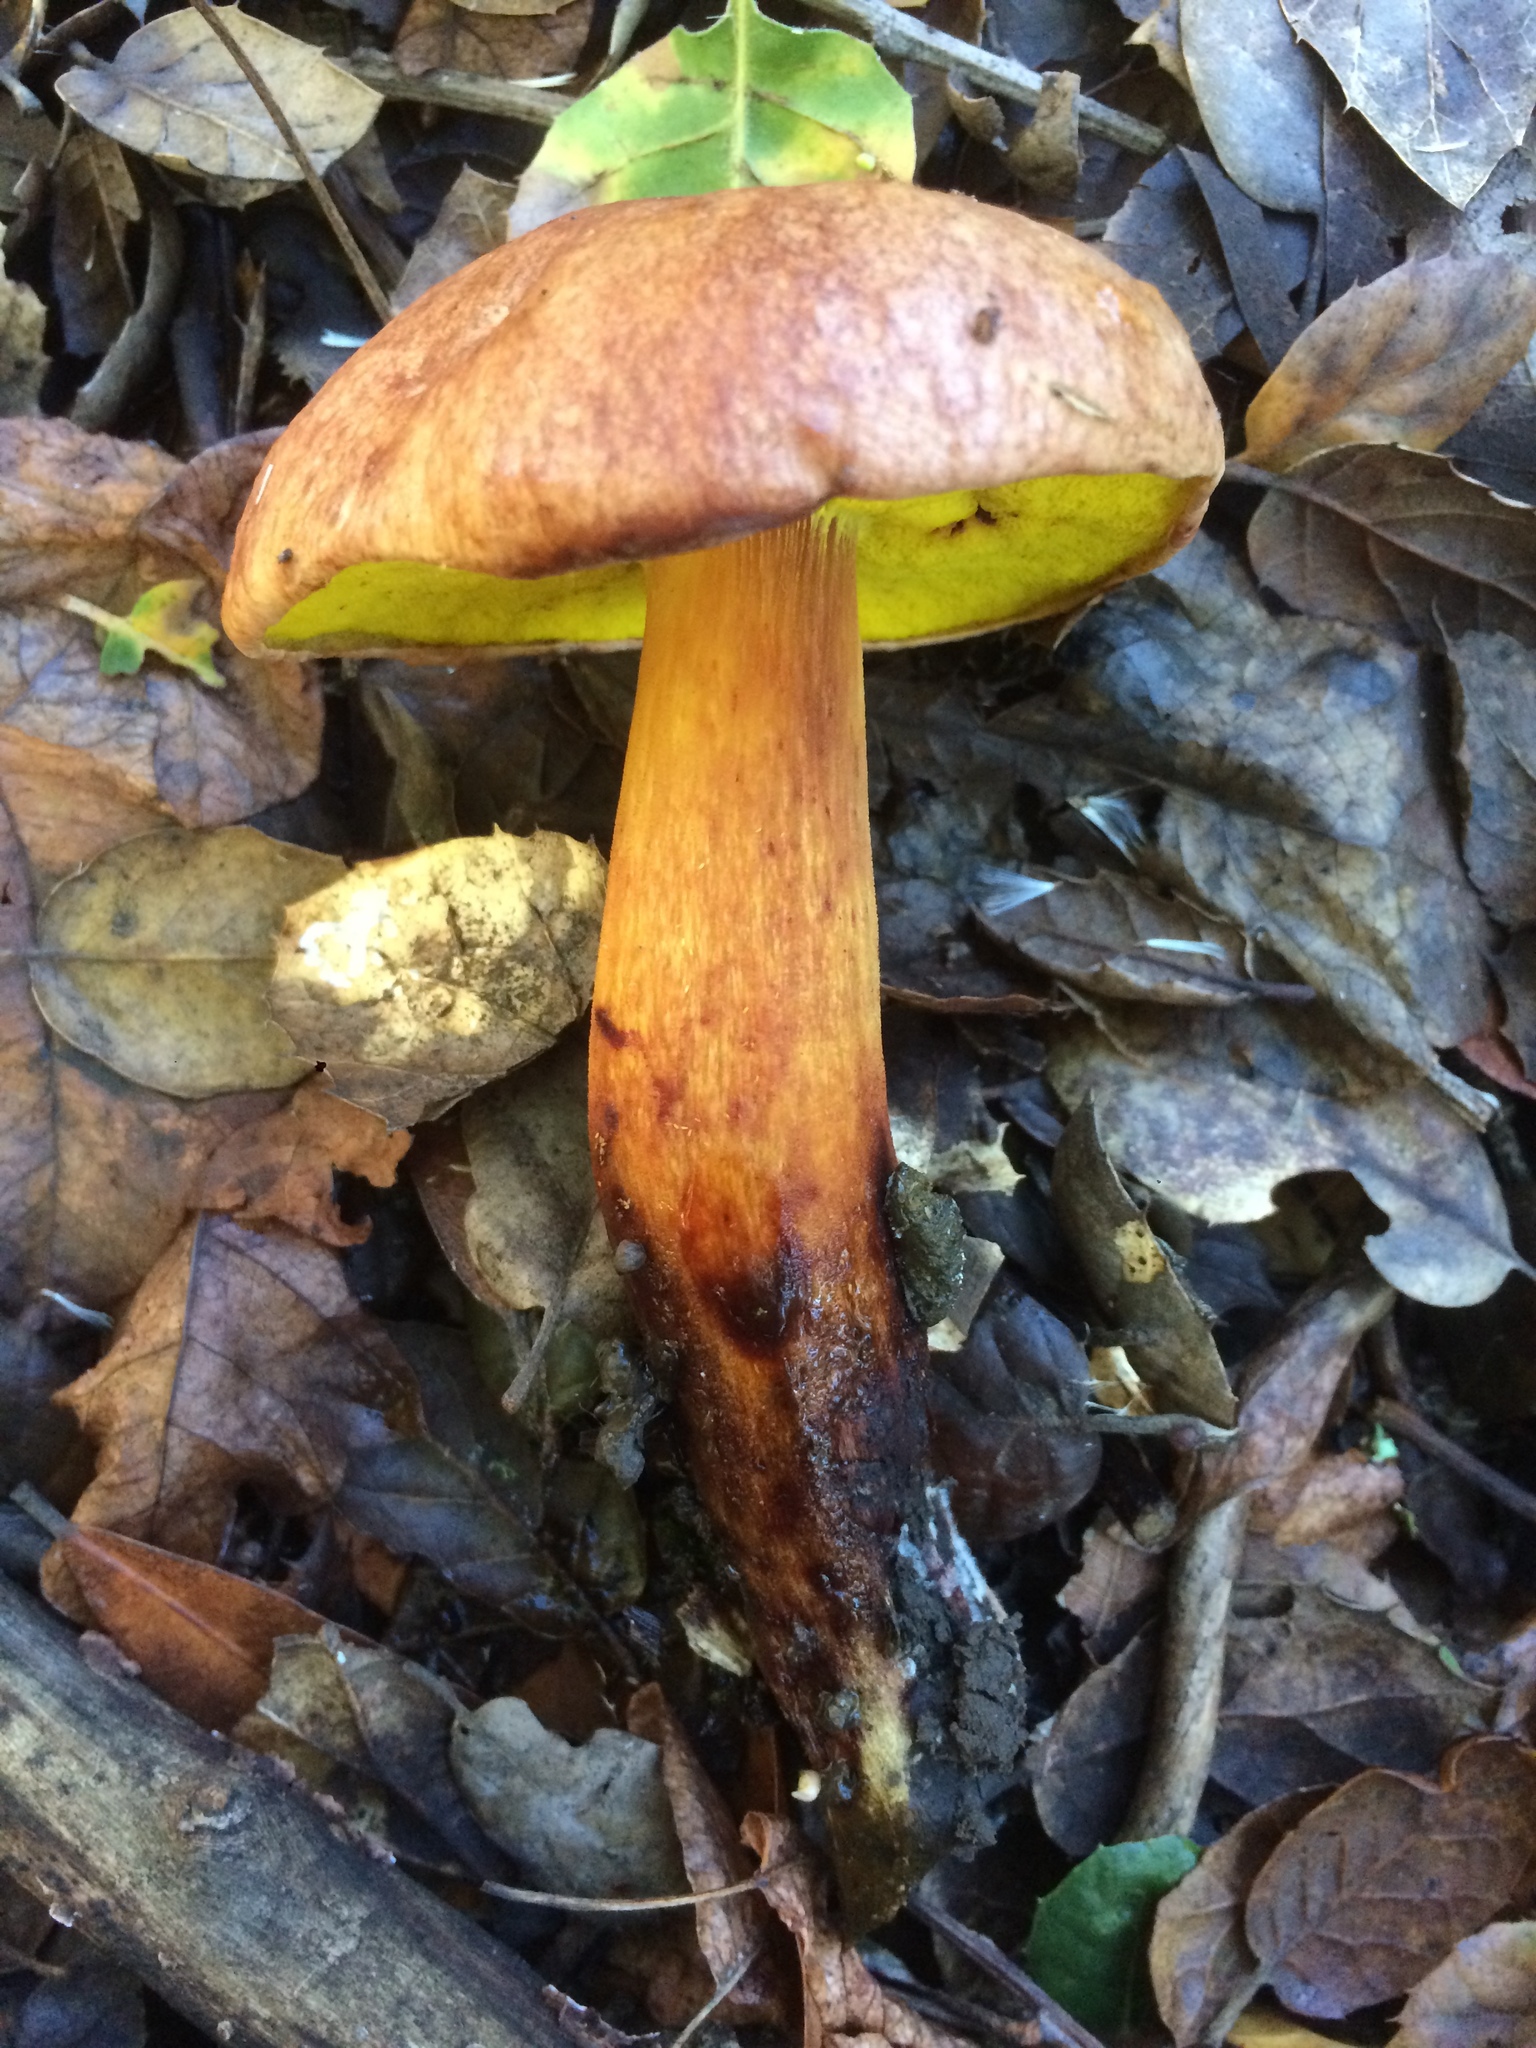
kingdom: Fungi
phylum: Basidiomycota
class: Agaricomycetes
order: Boletales
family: Boletaceae
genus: Aureoboletus
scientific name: Aureoboletus flaviporus
